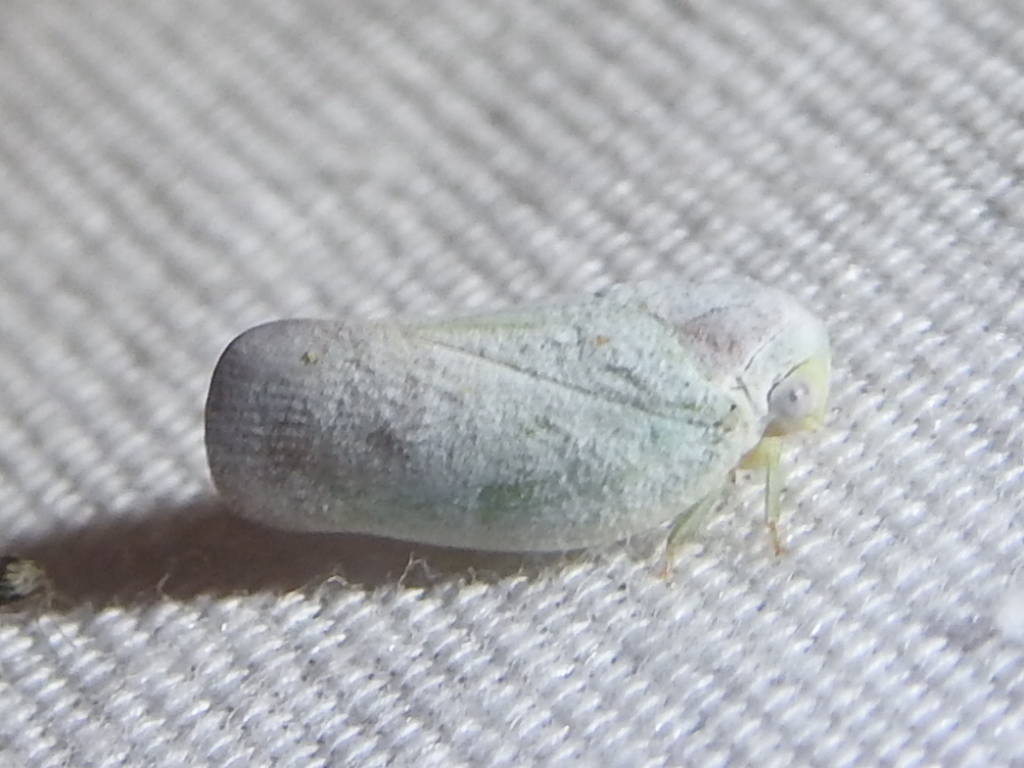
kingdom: Animalia
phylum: Arthropoda
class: Insecta
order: Hemiptera
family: Flatidae
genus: Flatormenis
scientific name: Flatormenis saucia
